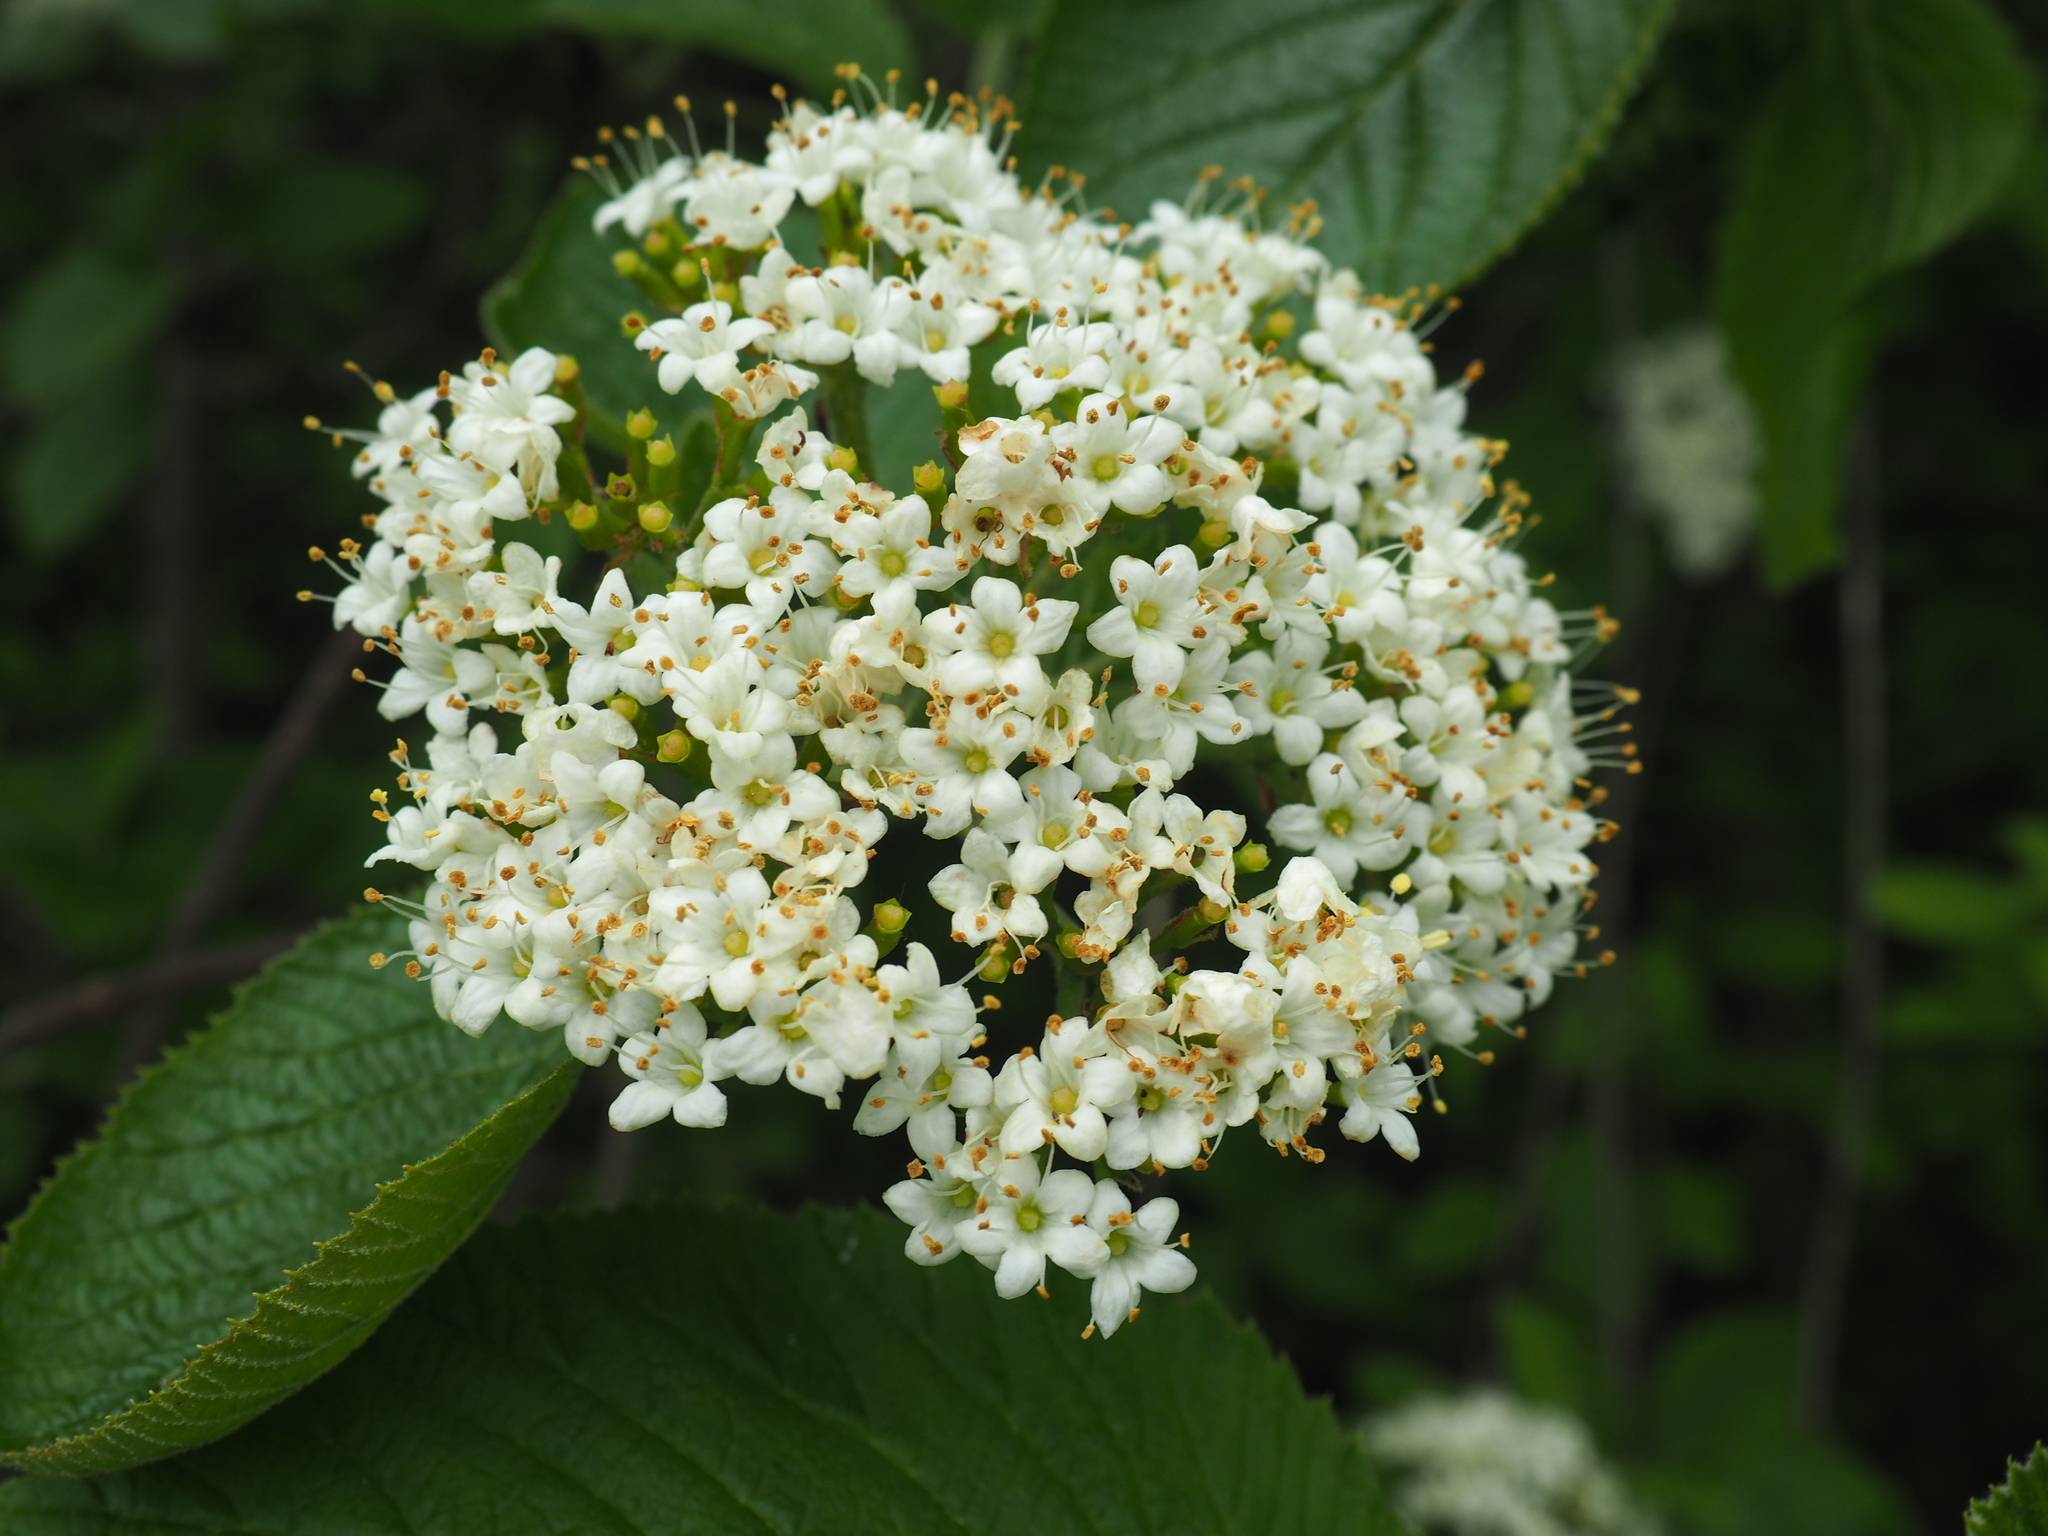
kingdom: Plantae
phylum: Tracheophyta
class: Magnoliopsida
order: Dipsacales
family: Viburnaceae
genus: Viburnum
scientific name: Viburnum lantana
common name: Wayfaring tree
